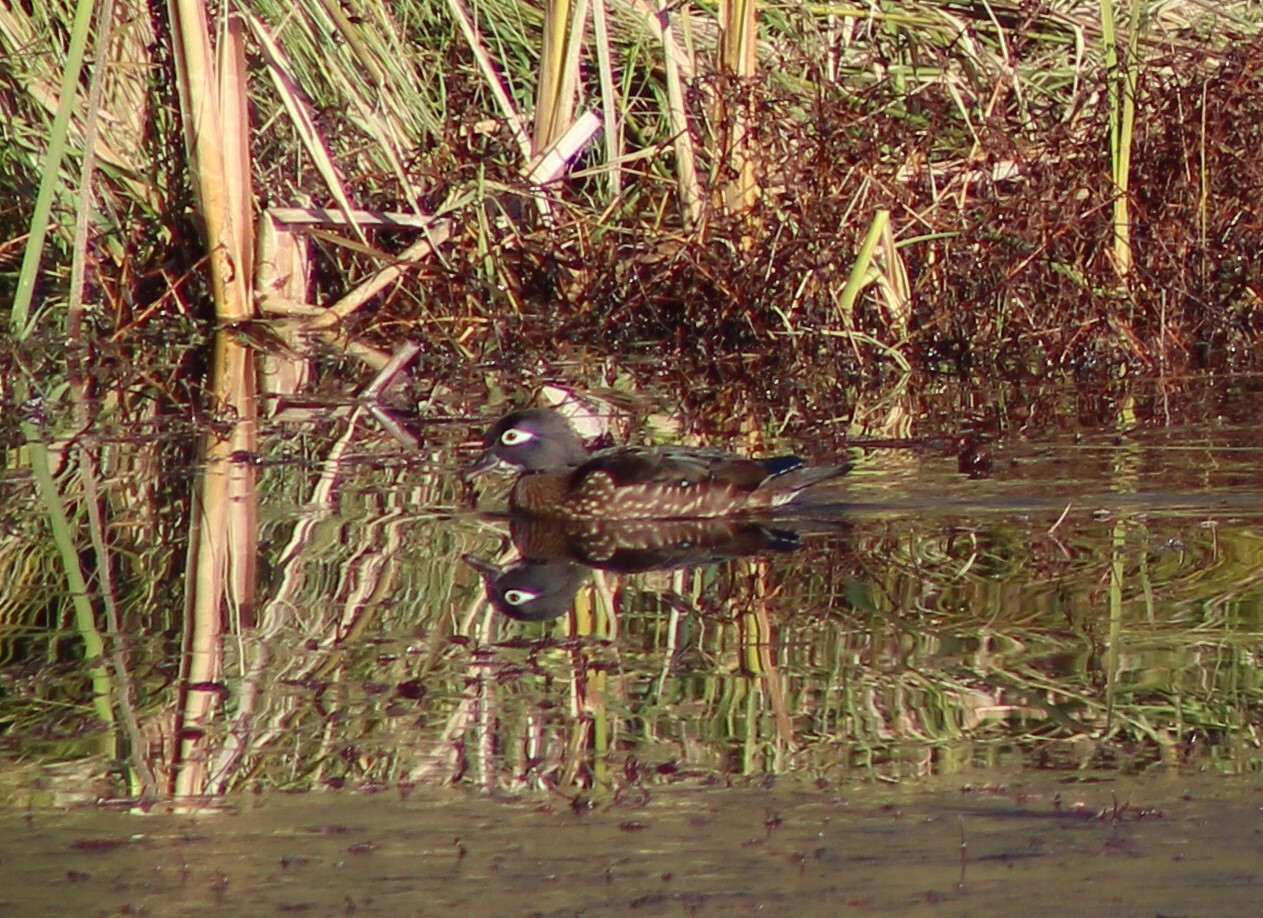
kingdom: Animalia
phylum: Chordata
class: Aves
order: Anseriformes
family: Anatidae
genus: Aix
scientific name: Aix sponsa
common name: Wood duck
